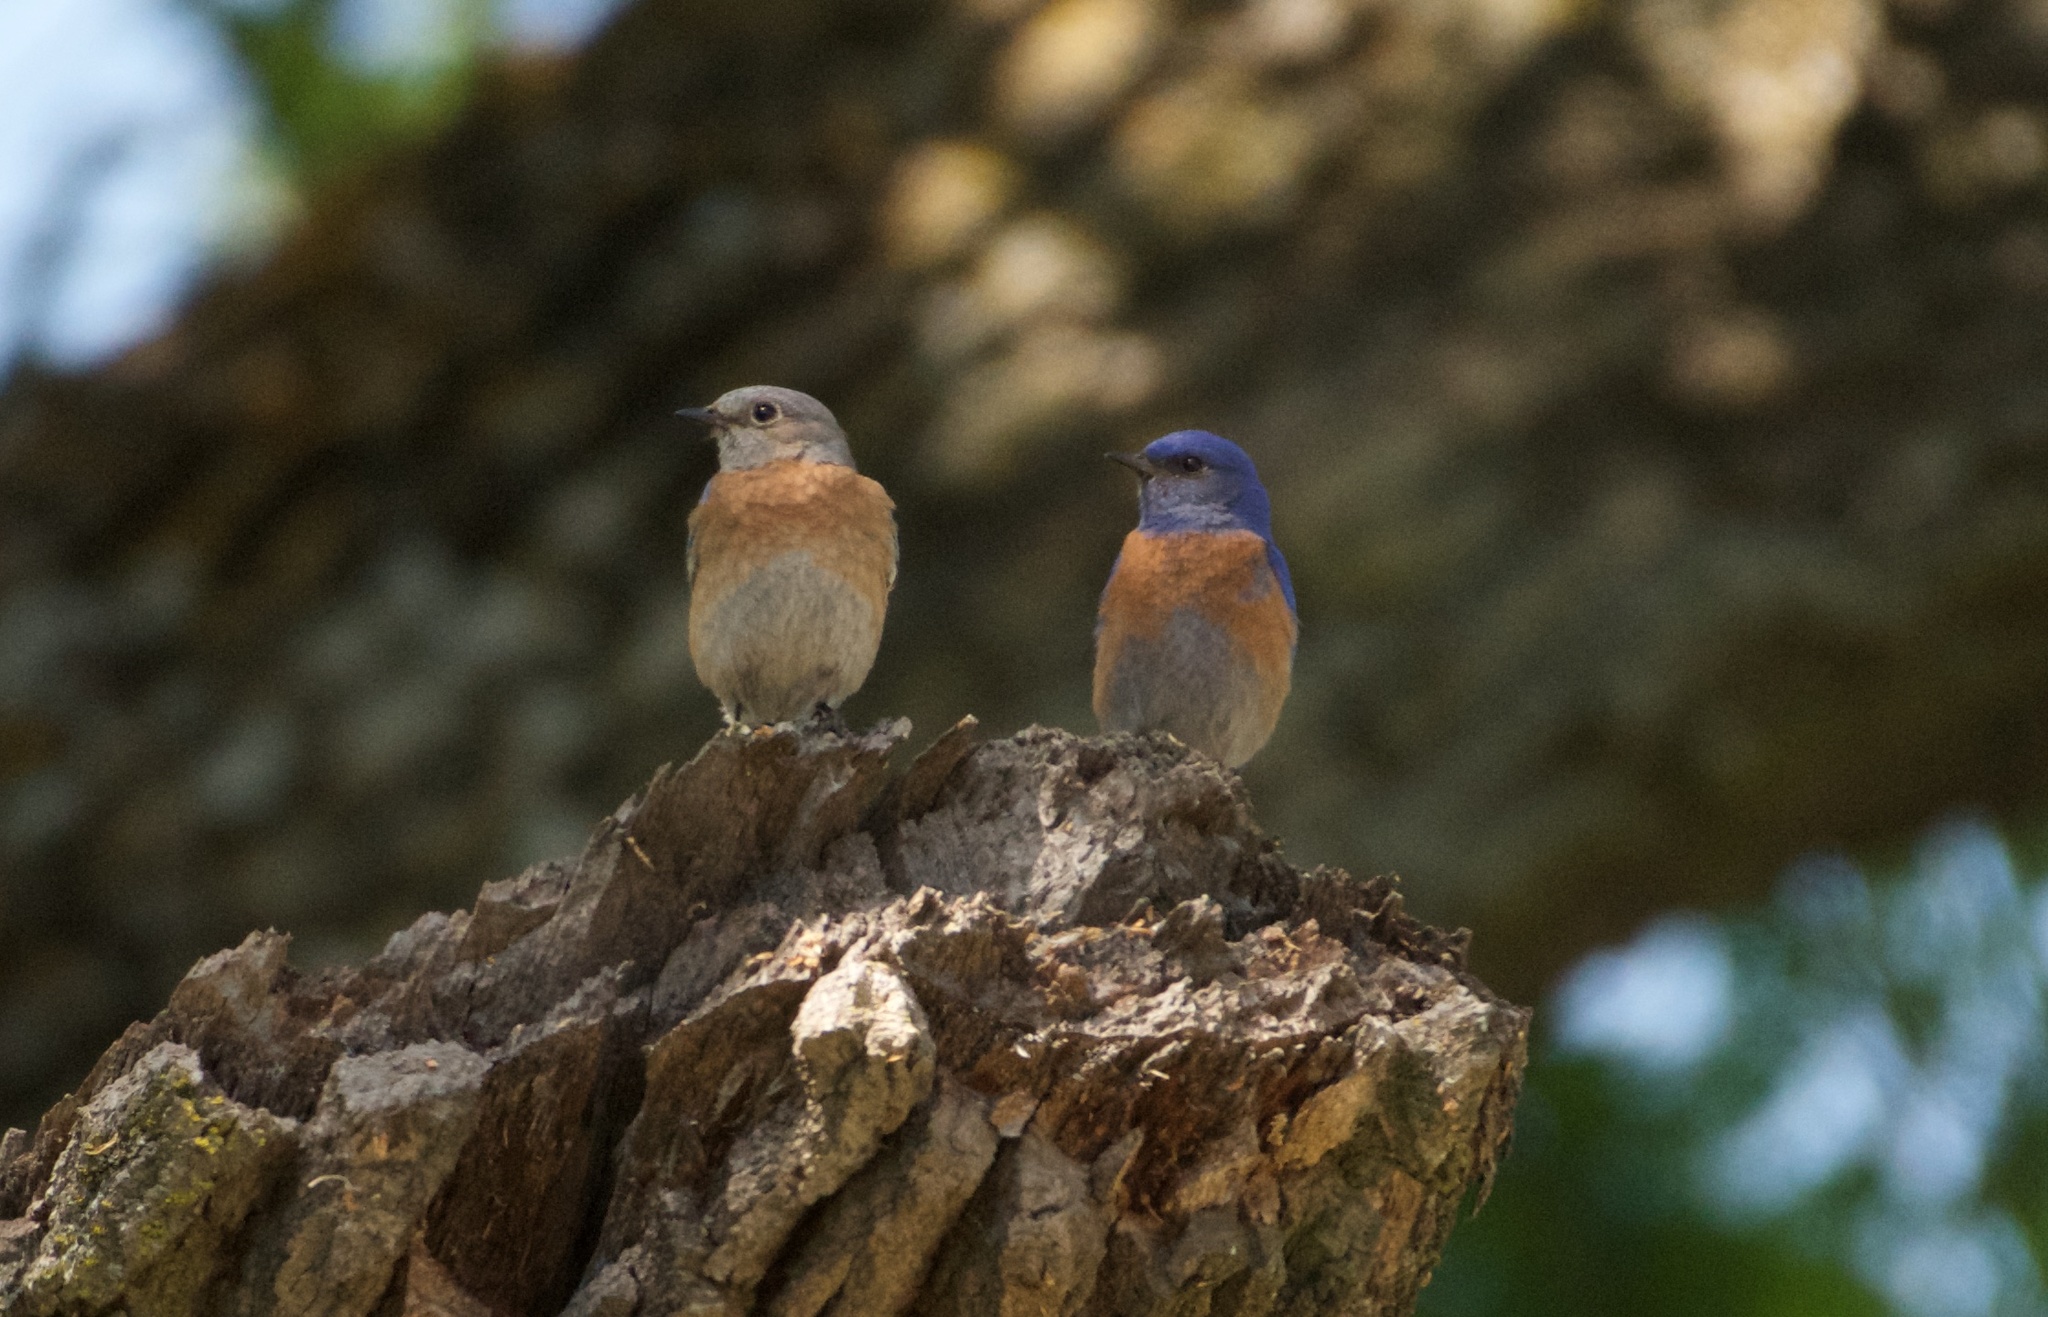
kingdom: Animalia
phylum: Chordata
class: Aves
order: Passeriformes
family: Turdidae
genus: Sialia
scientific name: Sialia mexicana
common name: Western bluebird
